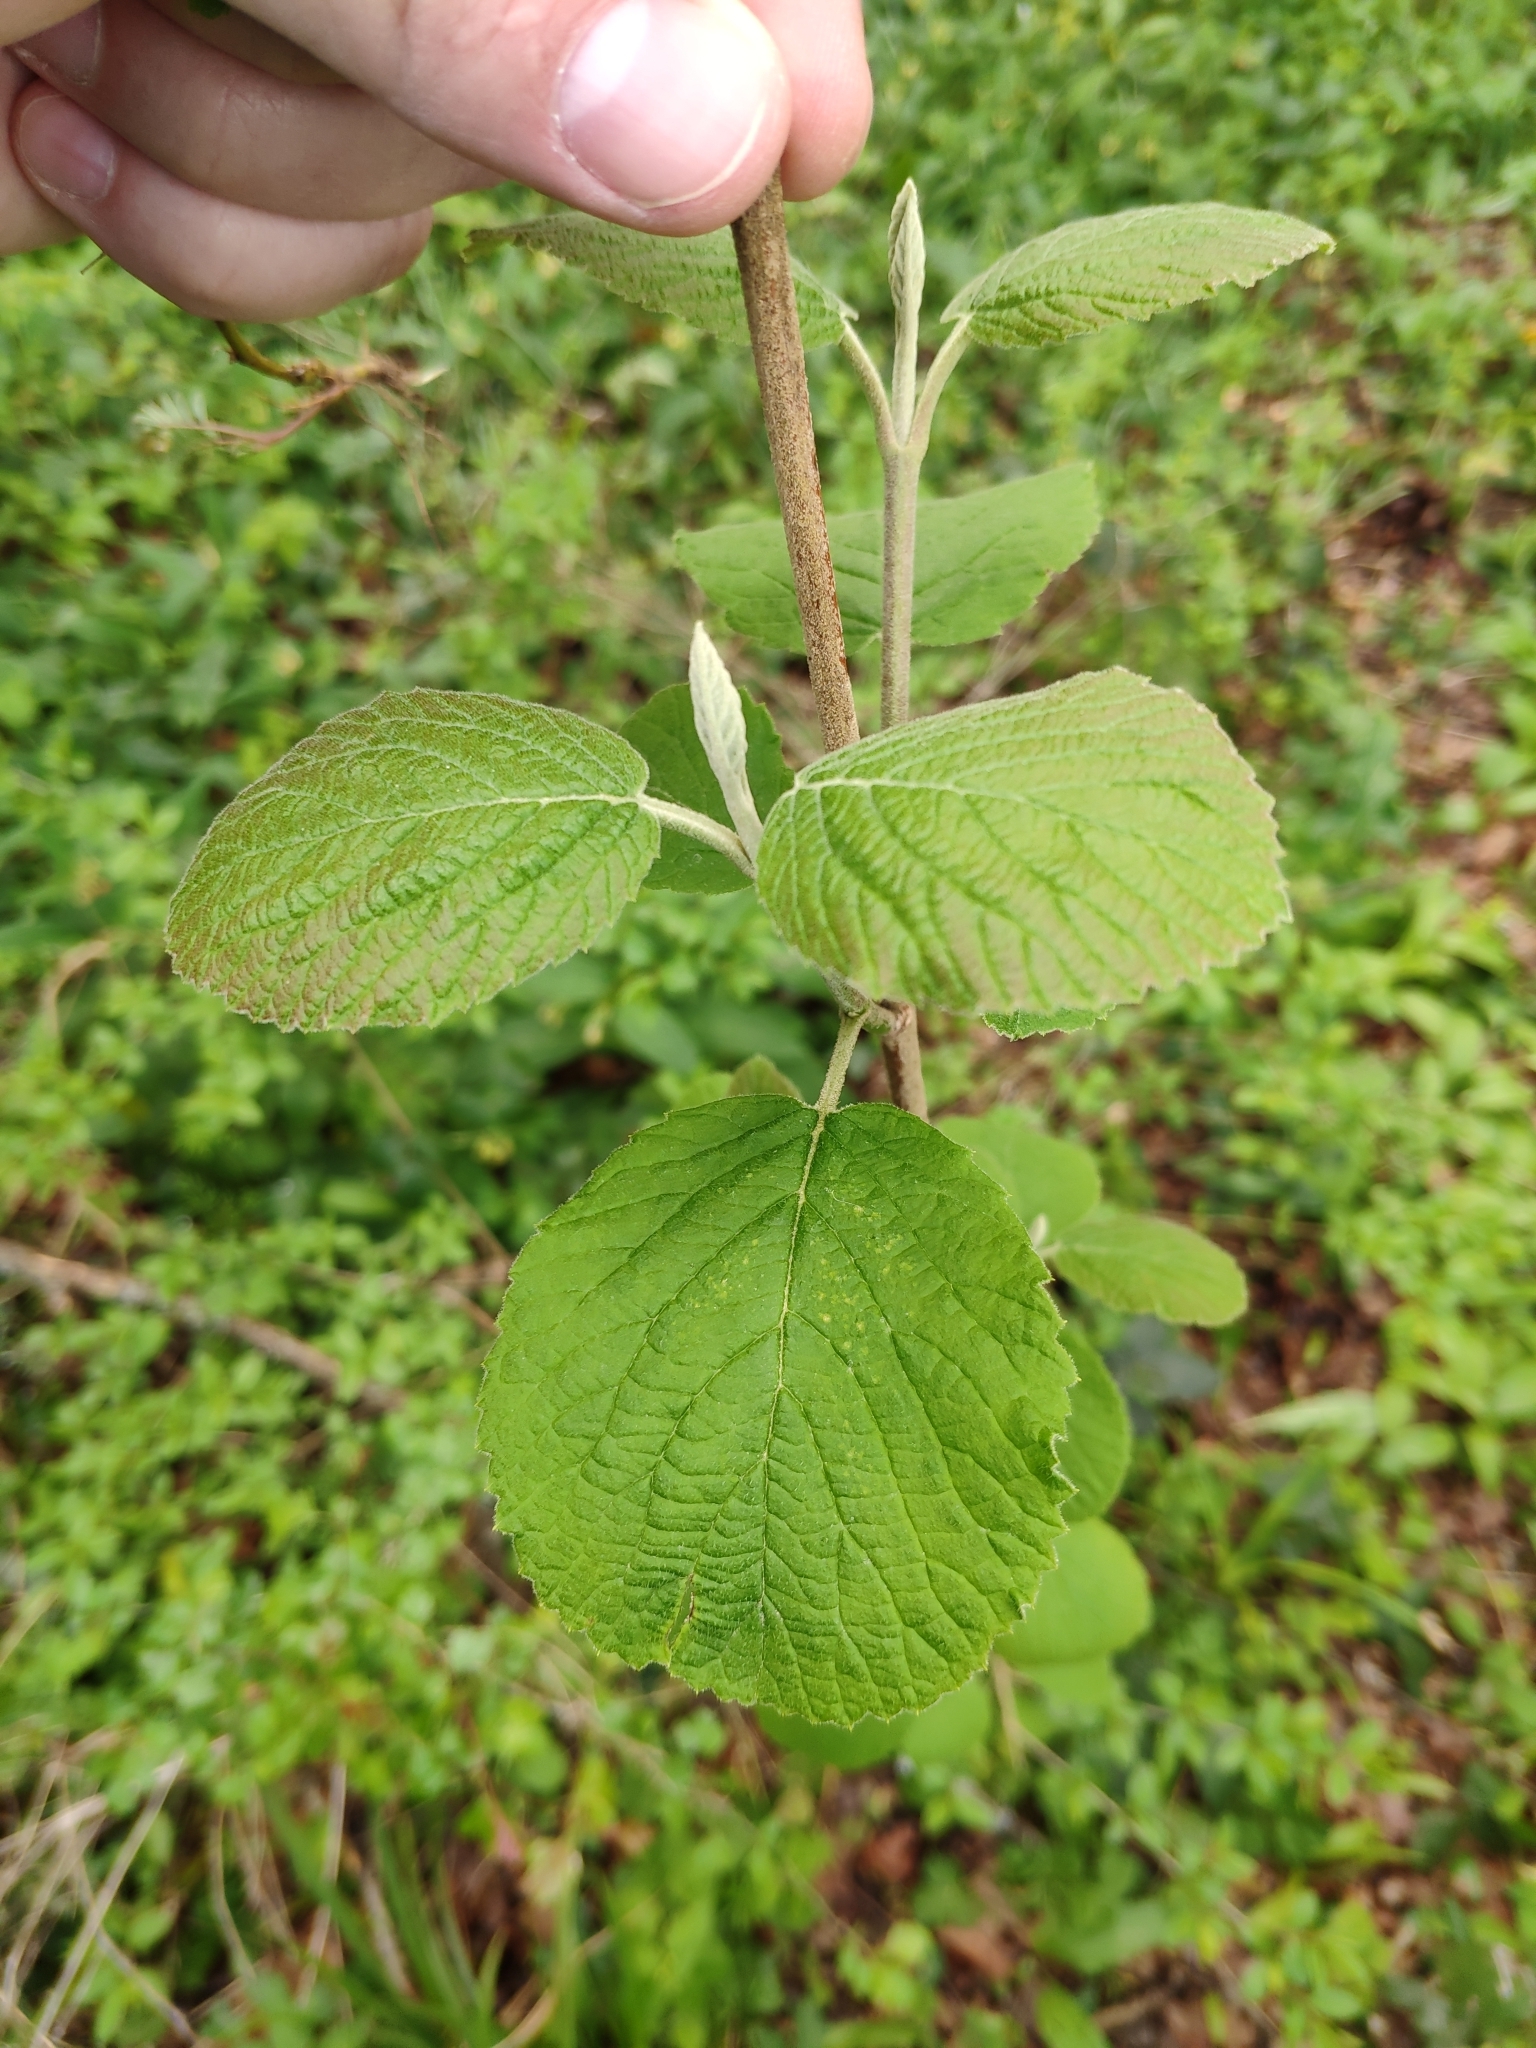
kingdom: Plantae
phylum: Tracheophyta
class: Magnoliopsida
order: Dipsacales
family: Viburnaceae
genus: Viburnum
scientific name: Viburnum lantana
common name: Wayfaring tree
